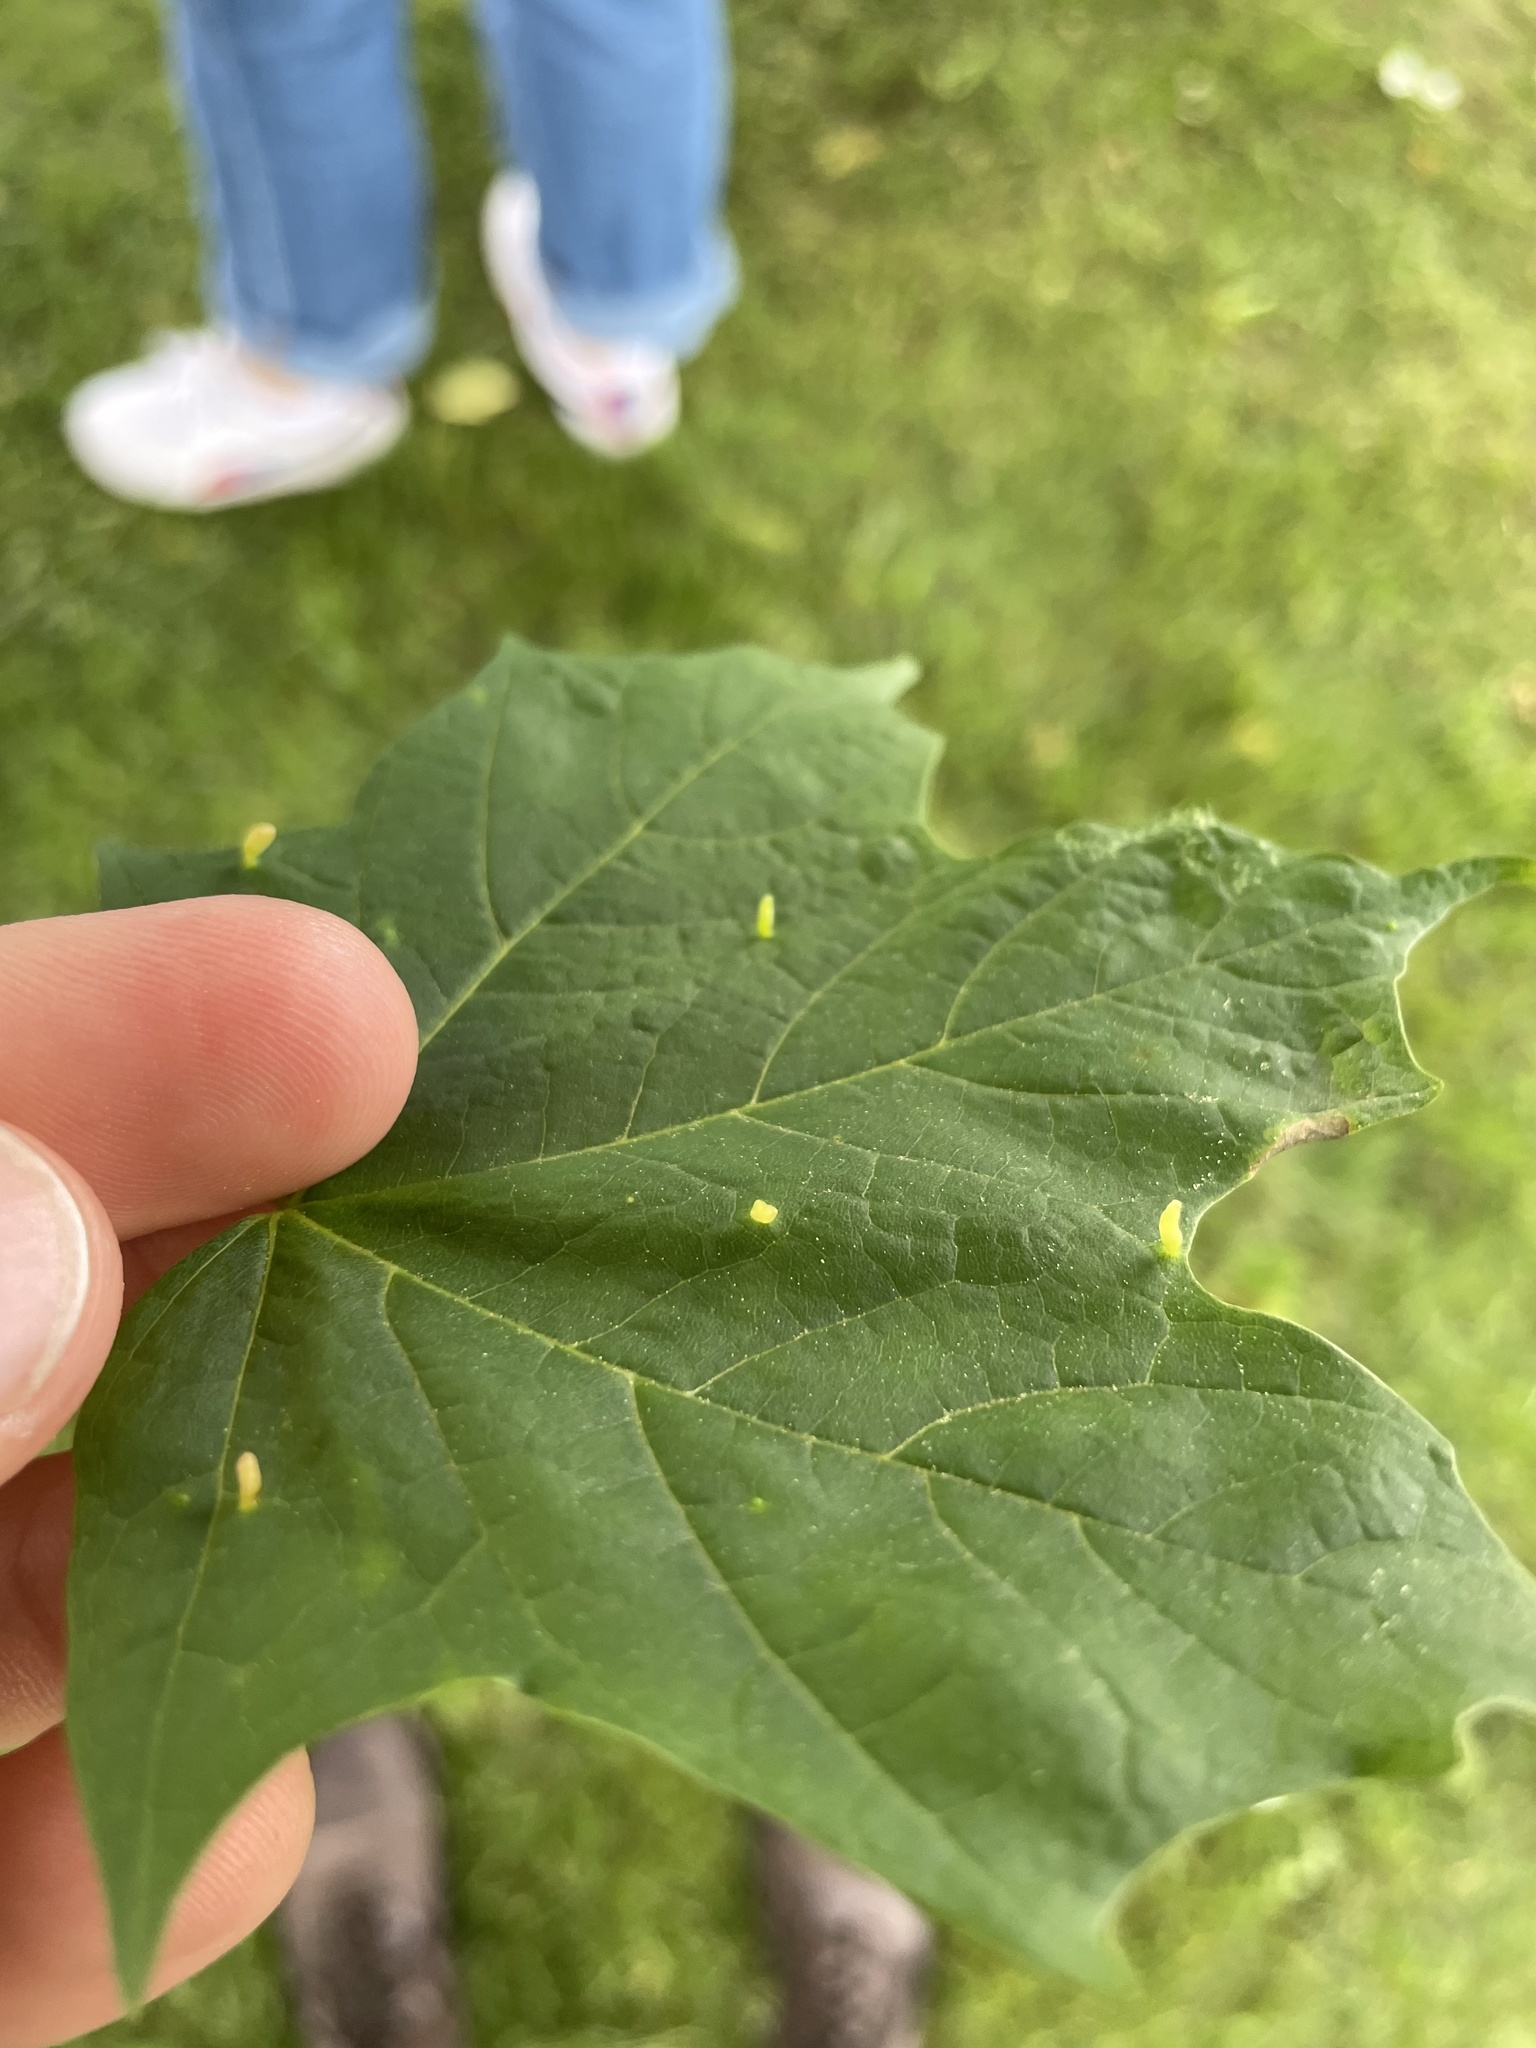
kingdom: Animalia
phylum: Arthropoda
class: Arachnida
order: Trombidiformes
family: Eriophyidae
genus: Vasates
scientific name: Vasates aceriscrumena
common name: Maple spindle gall mite
